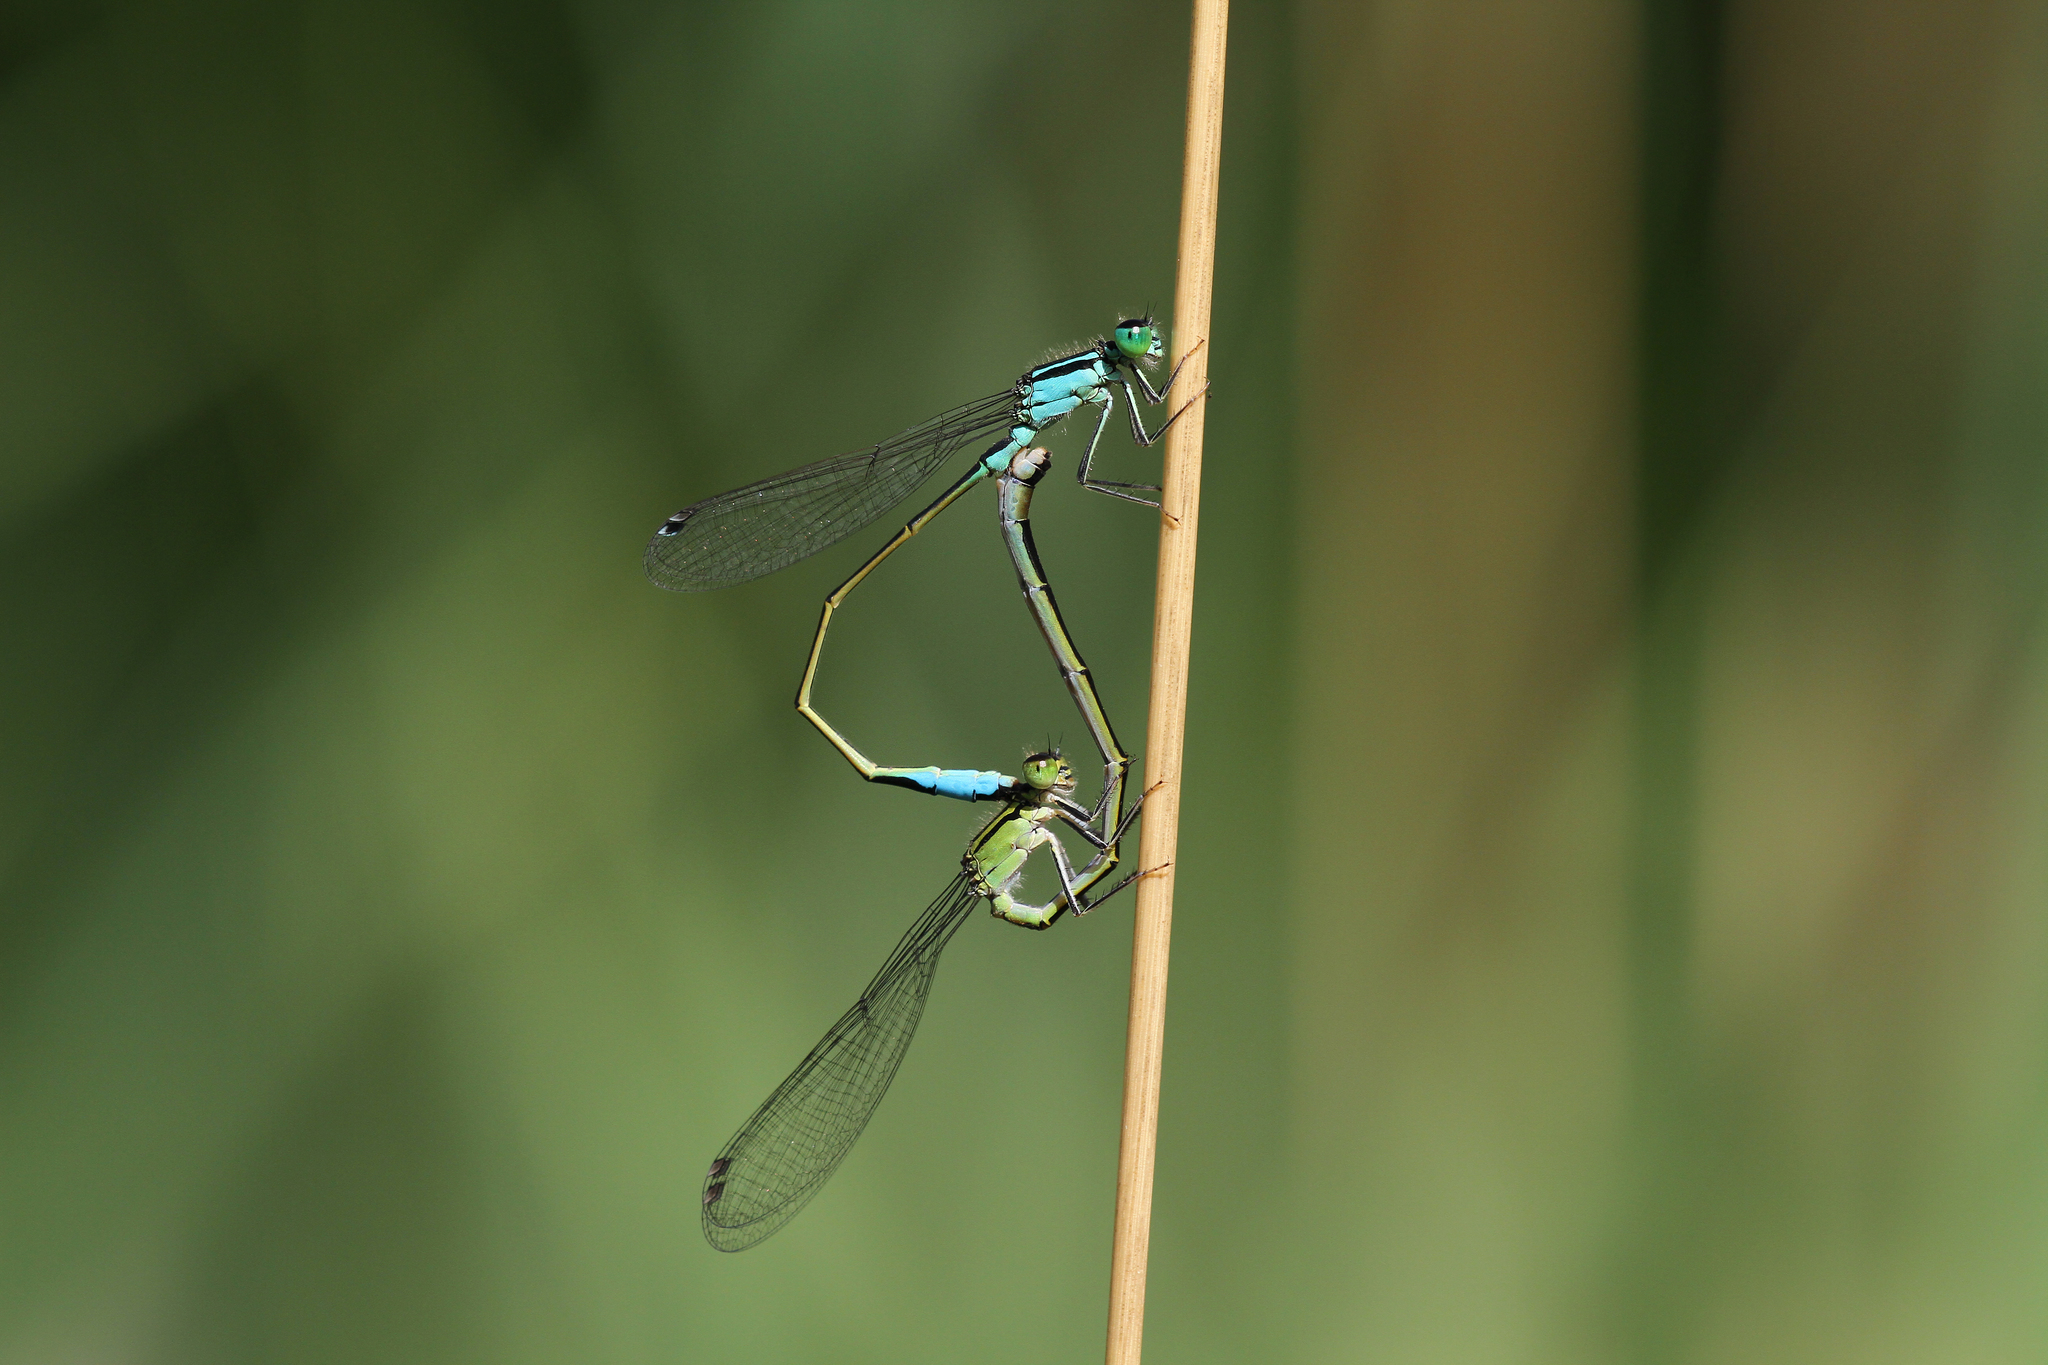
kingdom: Animalia
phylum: Arthropoda
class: Insecta
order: Odonata
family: Coenagrionidae
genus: Ischnura
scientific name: Ischnura elegans
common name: Blue-tailed damselfly
